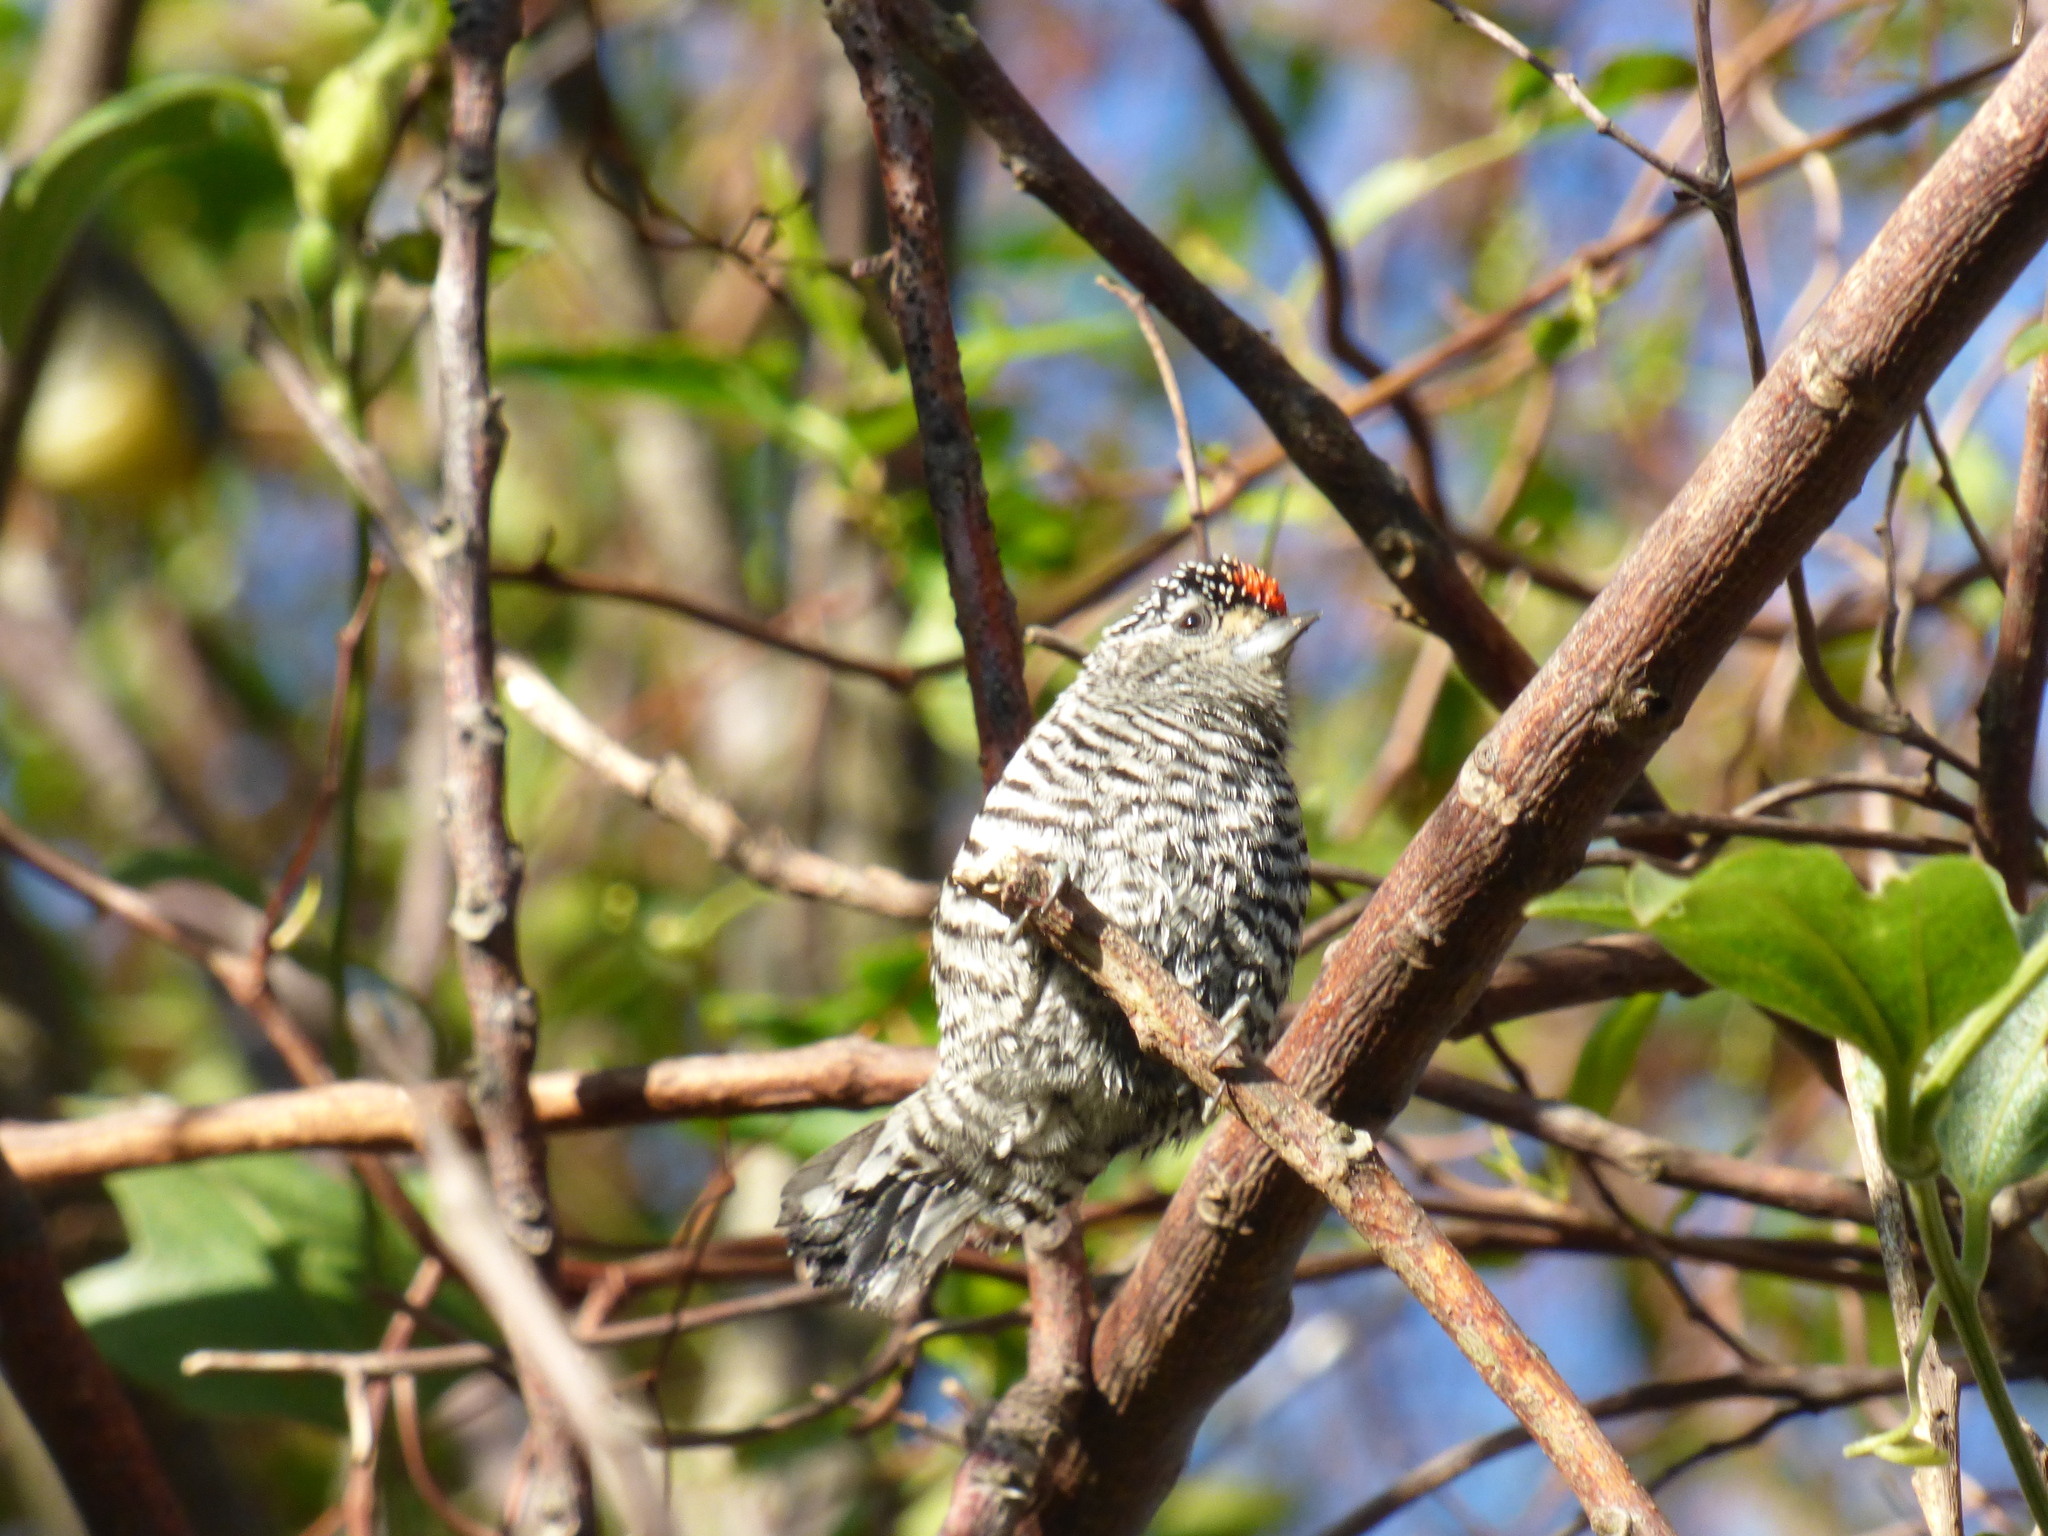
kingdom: Animalia
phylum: Chordata
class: Aves
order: Piciformes
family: Picidae
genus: Picumnus
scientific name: Picumnus cirratus
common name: White-barred piculet
